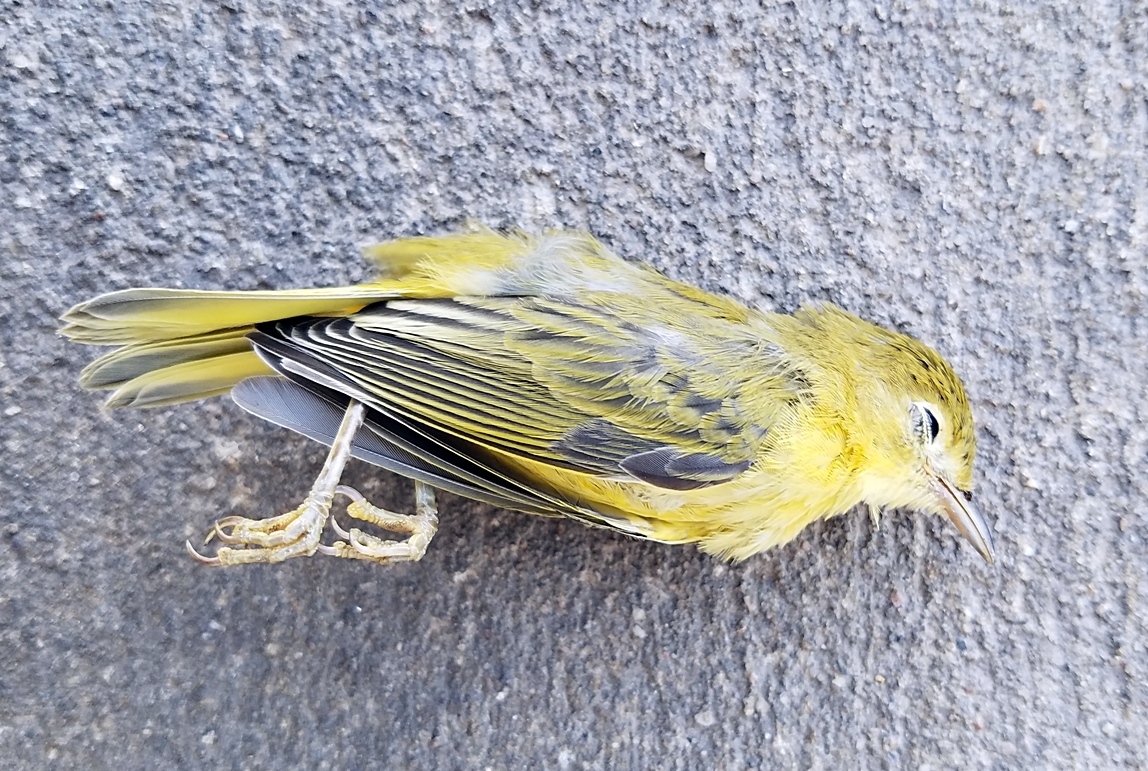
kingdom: Animalia
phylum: Chordata
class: Aves
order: Passeriformes
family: Parulidae
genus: Setophaga
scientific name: Setophaga petechia
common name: Yellow warbler
